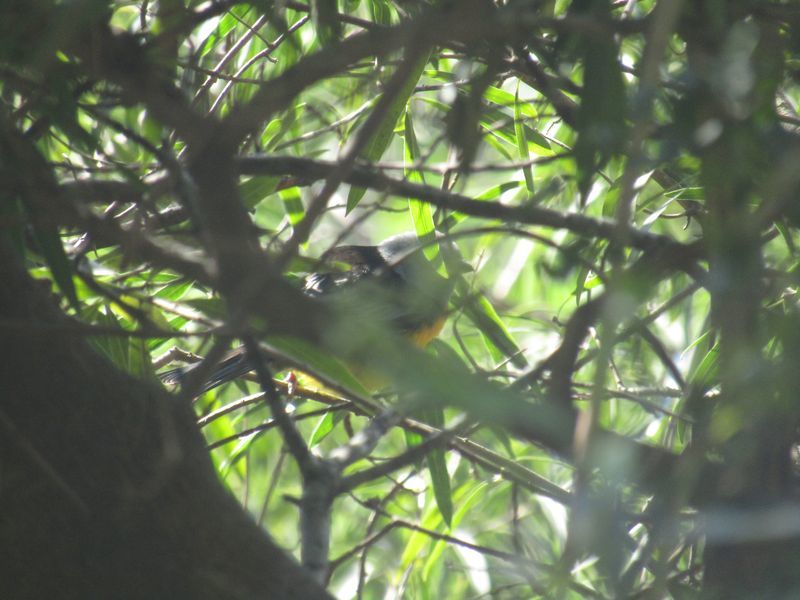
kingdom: Animalia
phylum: Chordata
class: Aves
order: Passeriformes
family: Thraupidae
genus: Rauenia
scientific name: Rauenia bonariensis
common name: Blue-and-yellow tanager
